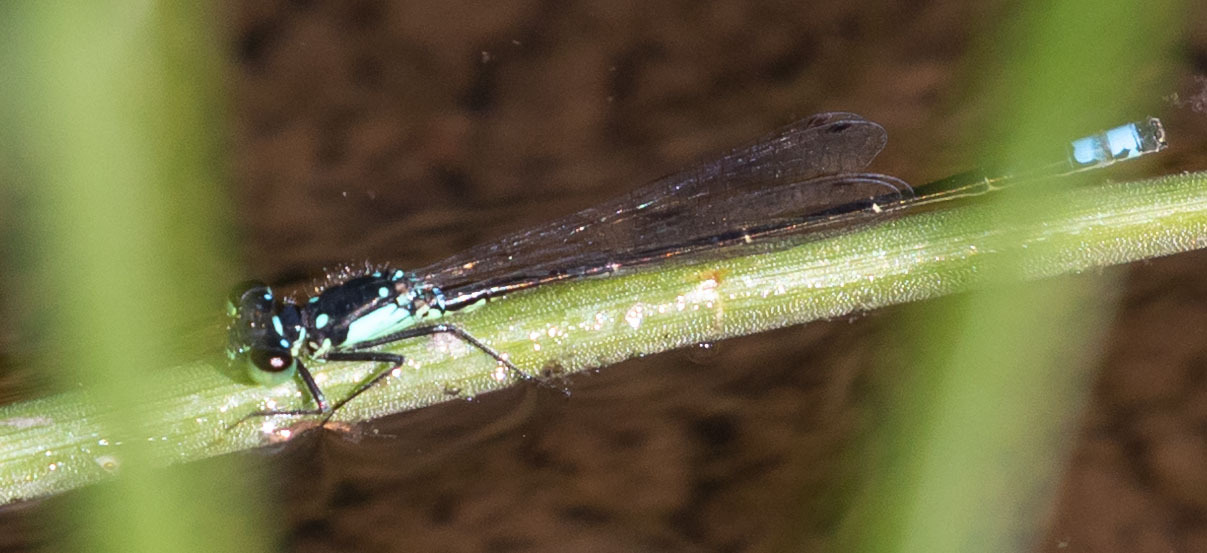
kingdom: Animalia
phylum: Arthropoda
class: Insecta
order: Odonata
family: Coenagrionidae
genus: Ischnura
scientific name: Ischnura cervula
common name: Pacific forktail
